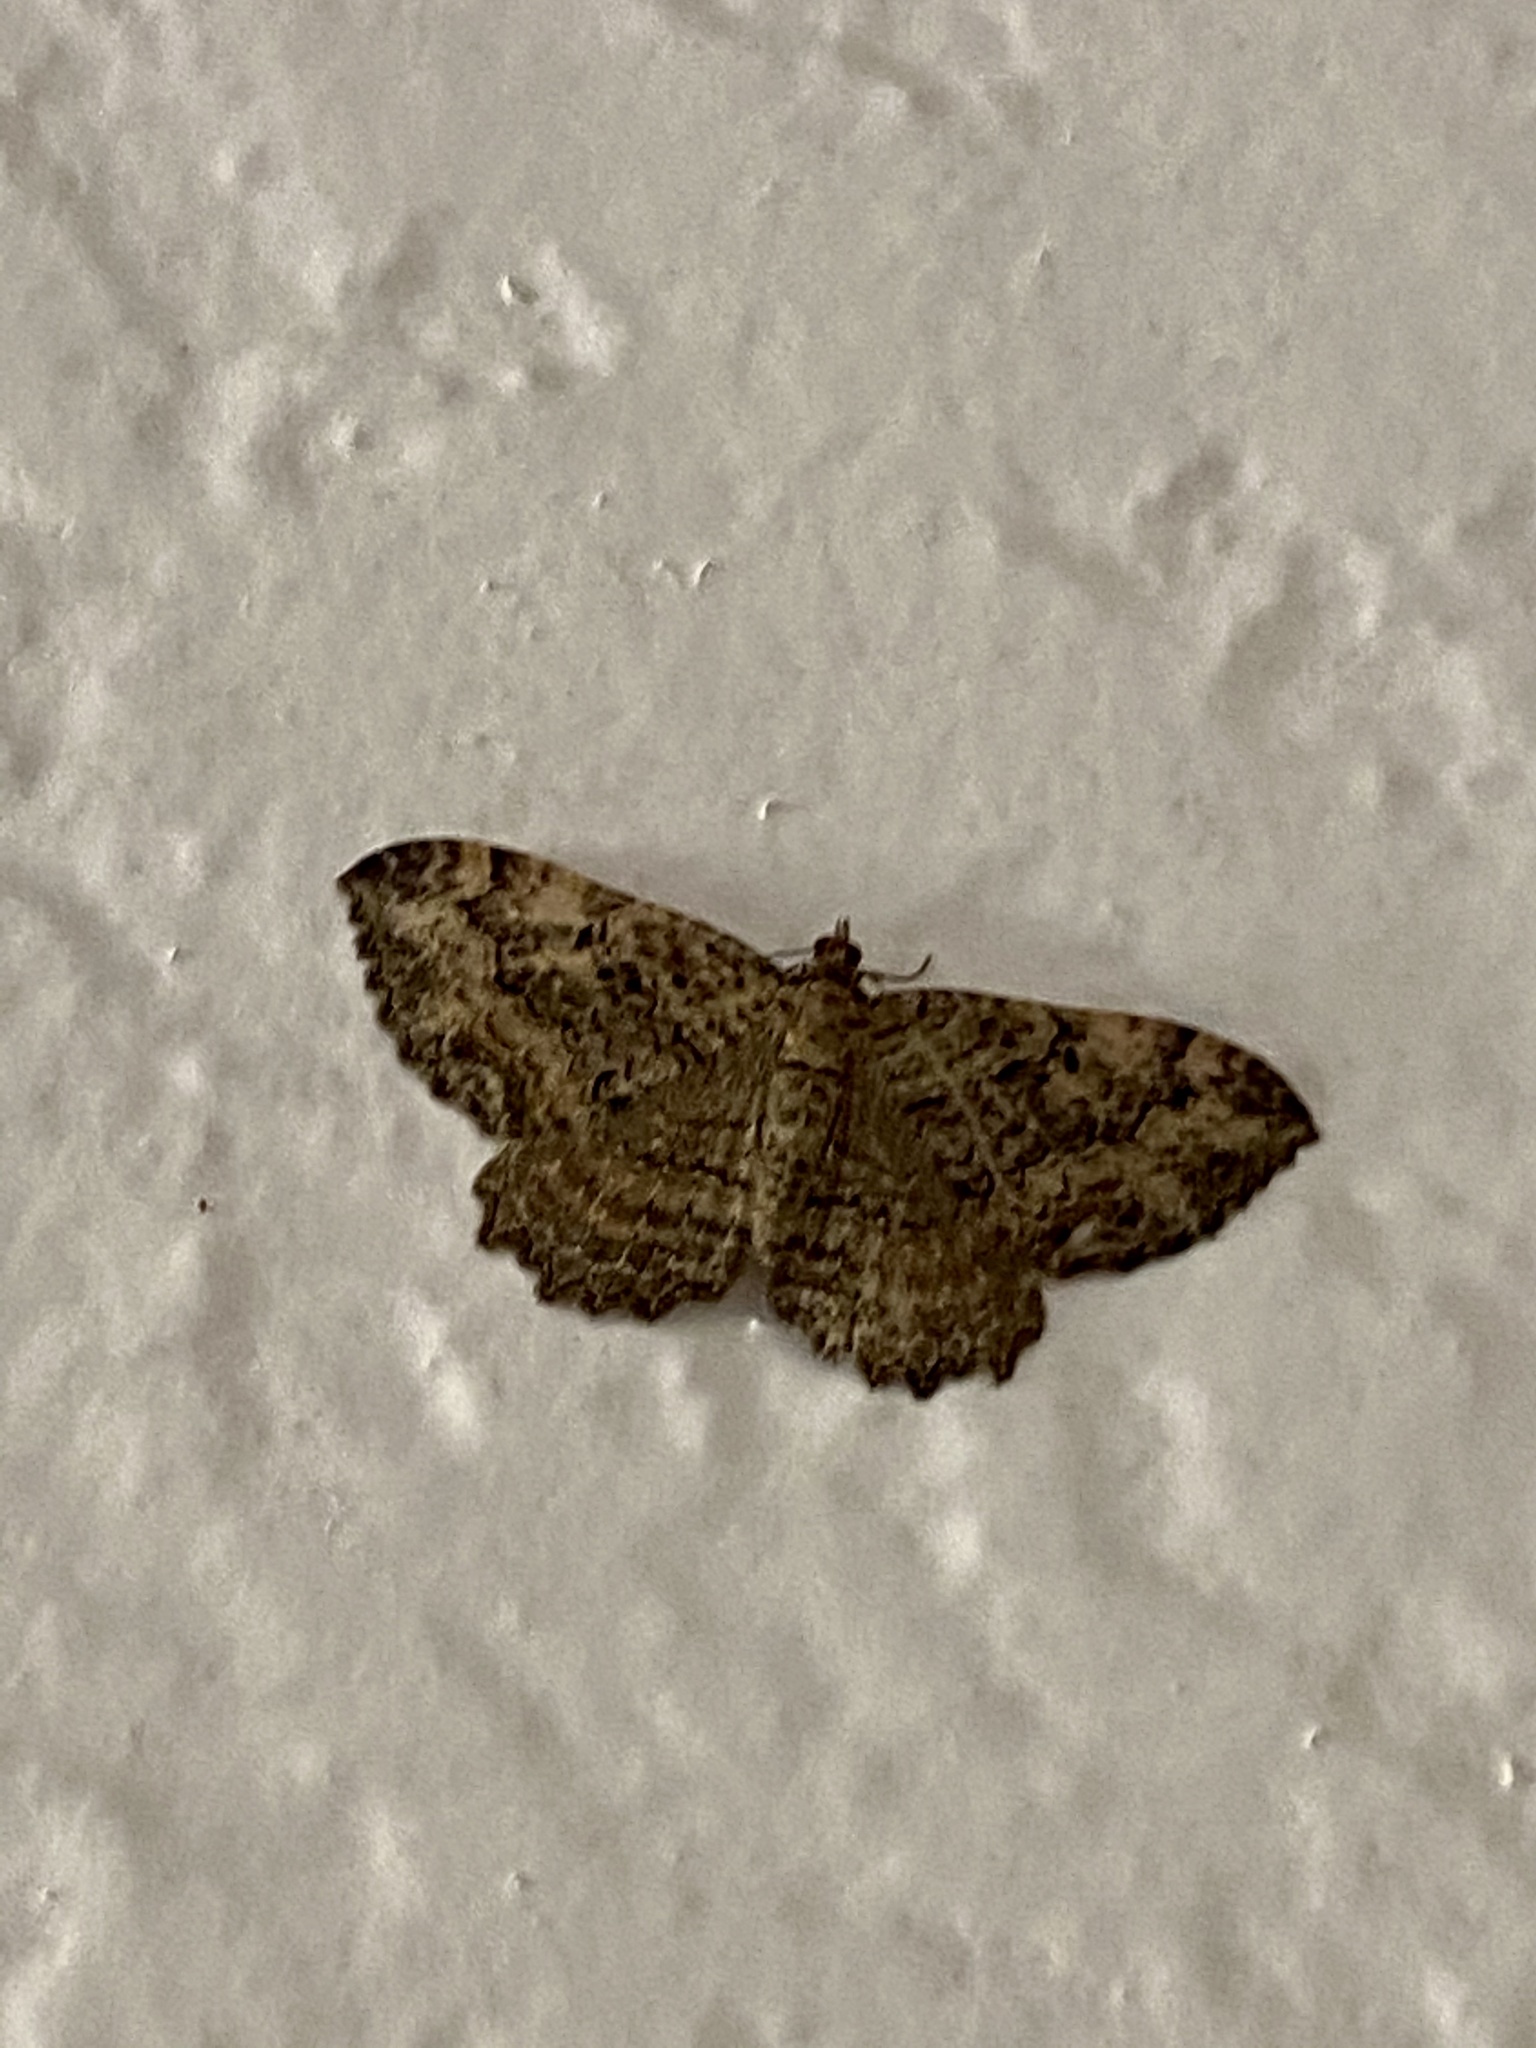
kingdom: Animalia
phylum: Arthropoda
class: Insecta
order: Lepidoptera
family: Geometridae
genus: Rheumaptera
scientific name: Rheumaptera
